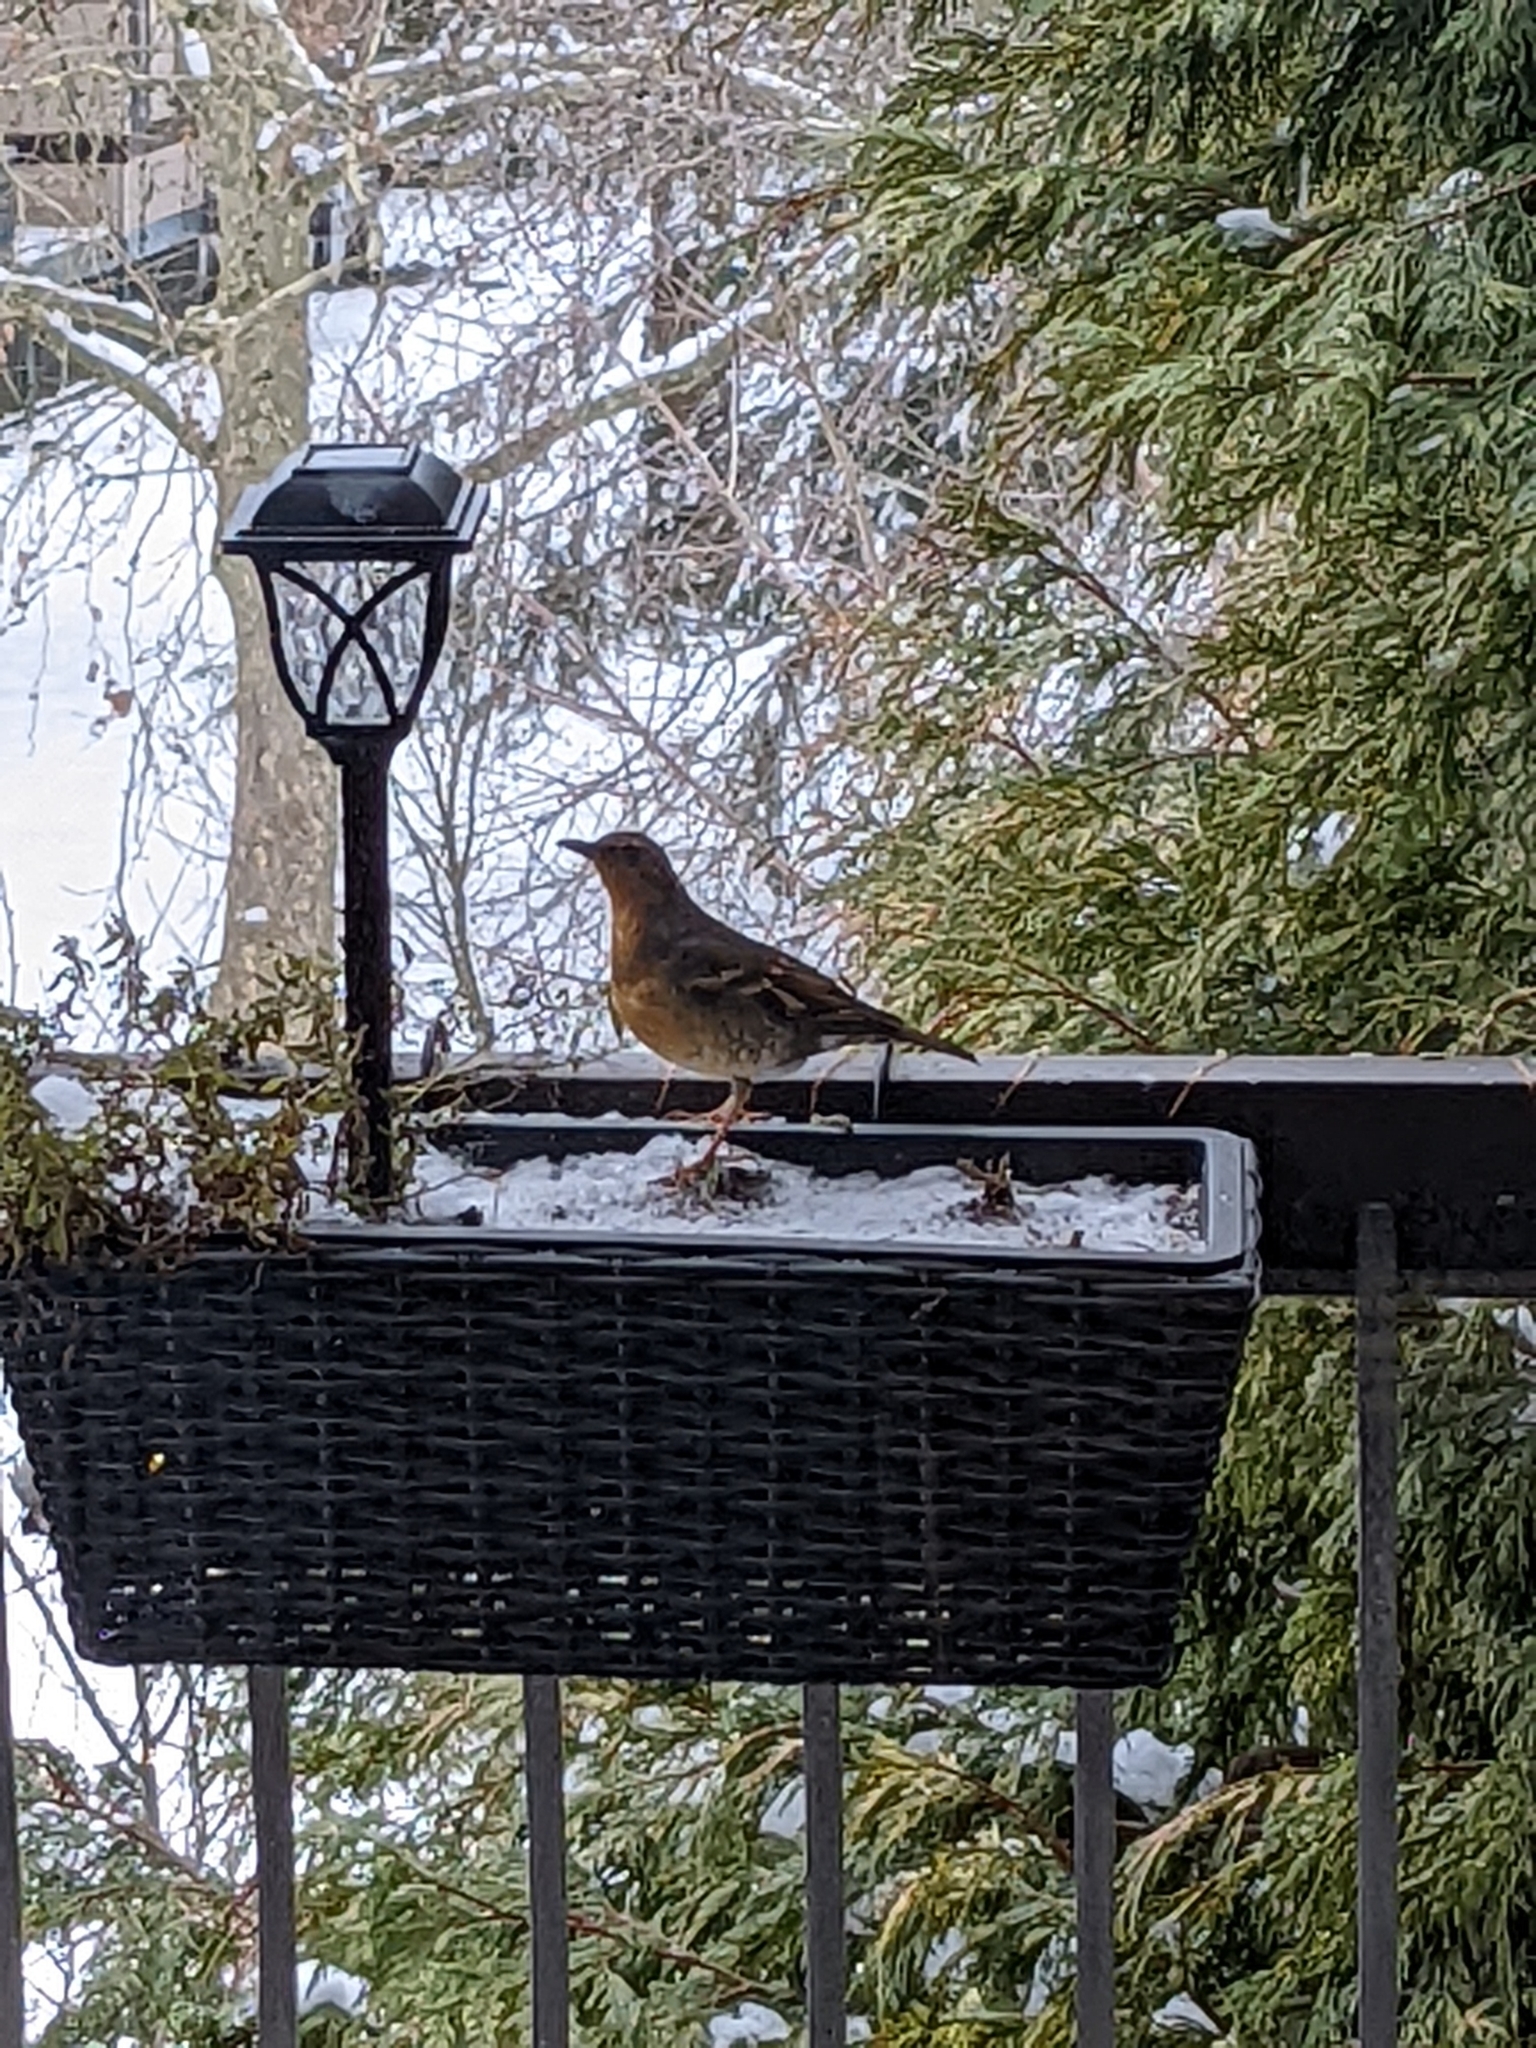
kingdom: Animalia
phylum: Chordata
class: Aves
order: Passeriformes
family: Turdidae
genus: Ixoreus
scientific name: Ixoreus naevius
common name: Varied thrush
